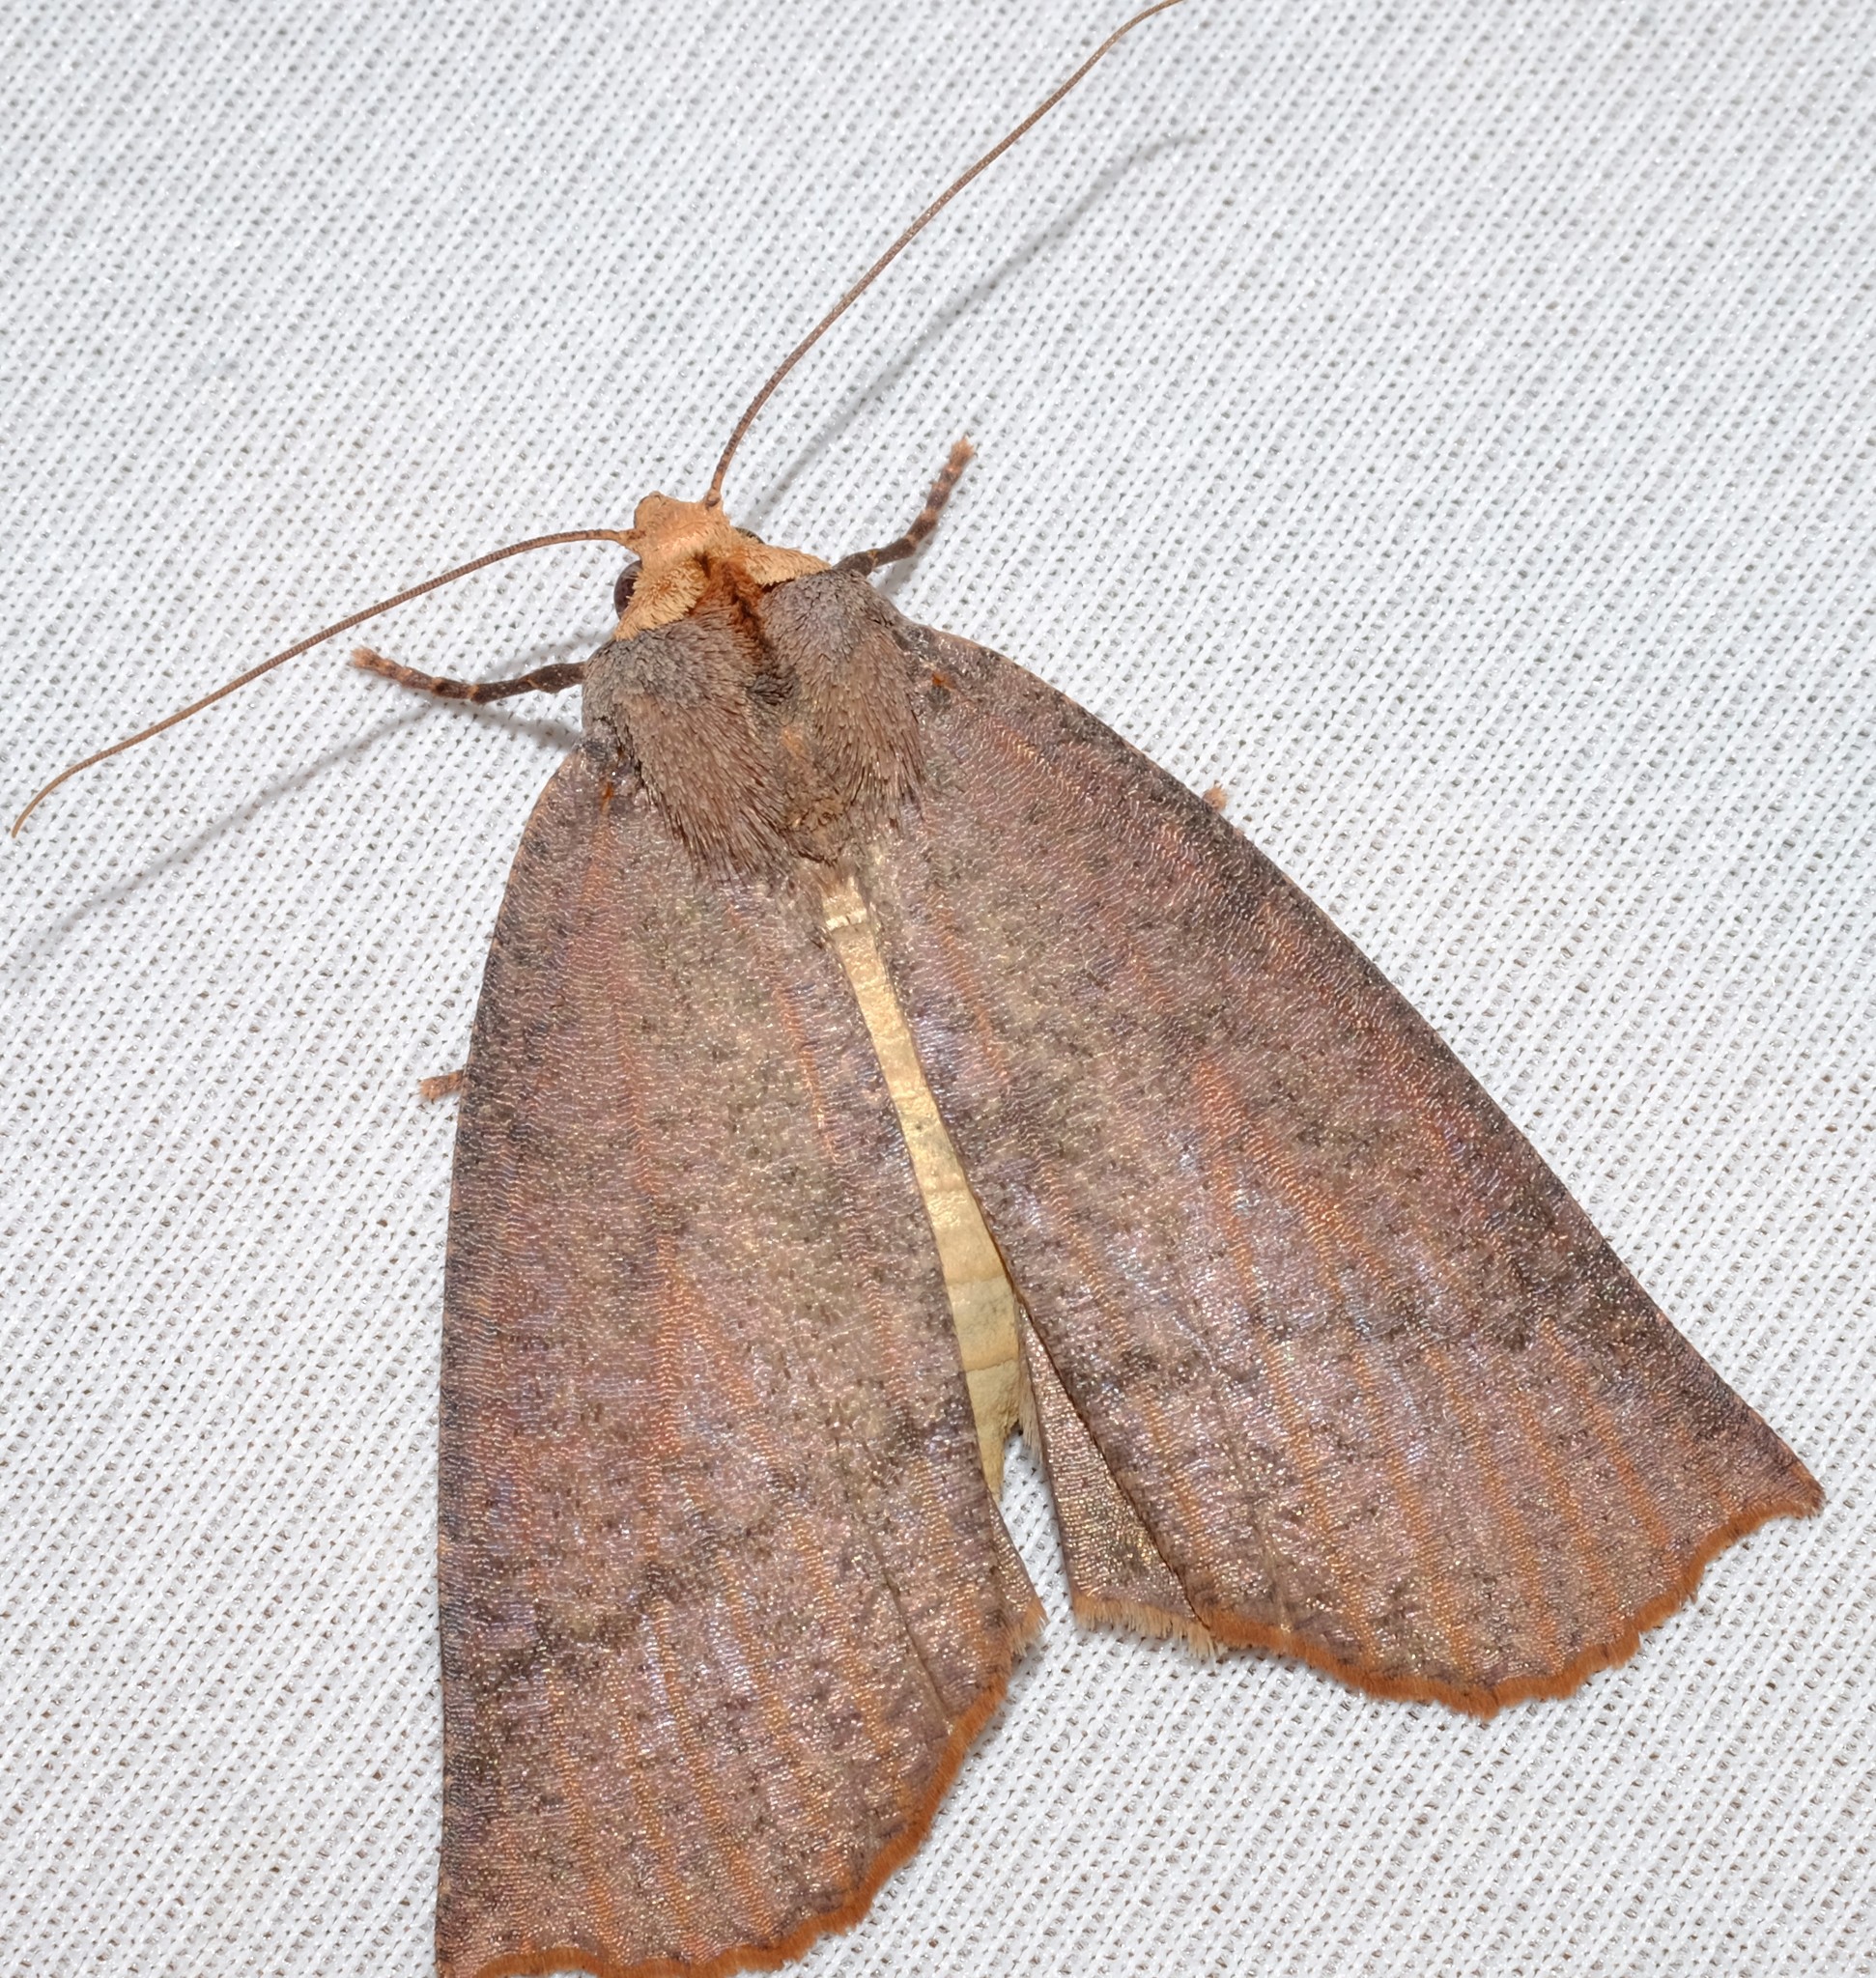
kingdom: Animalia
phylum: Arthropoda
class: Insecta
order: Lepidoptera
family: Geometridae
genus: Fisera
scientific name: Fisera eribola
